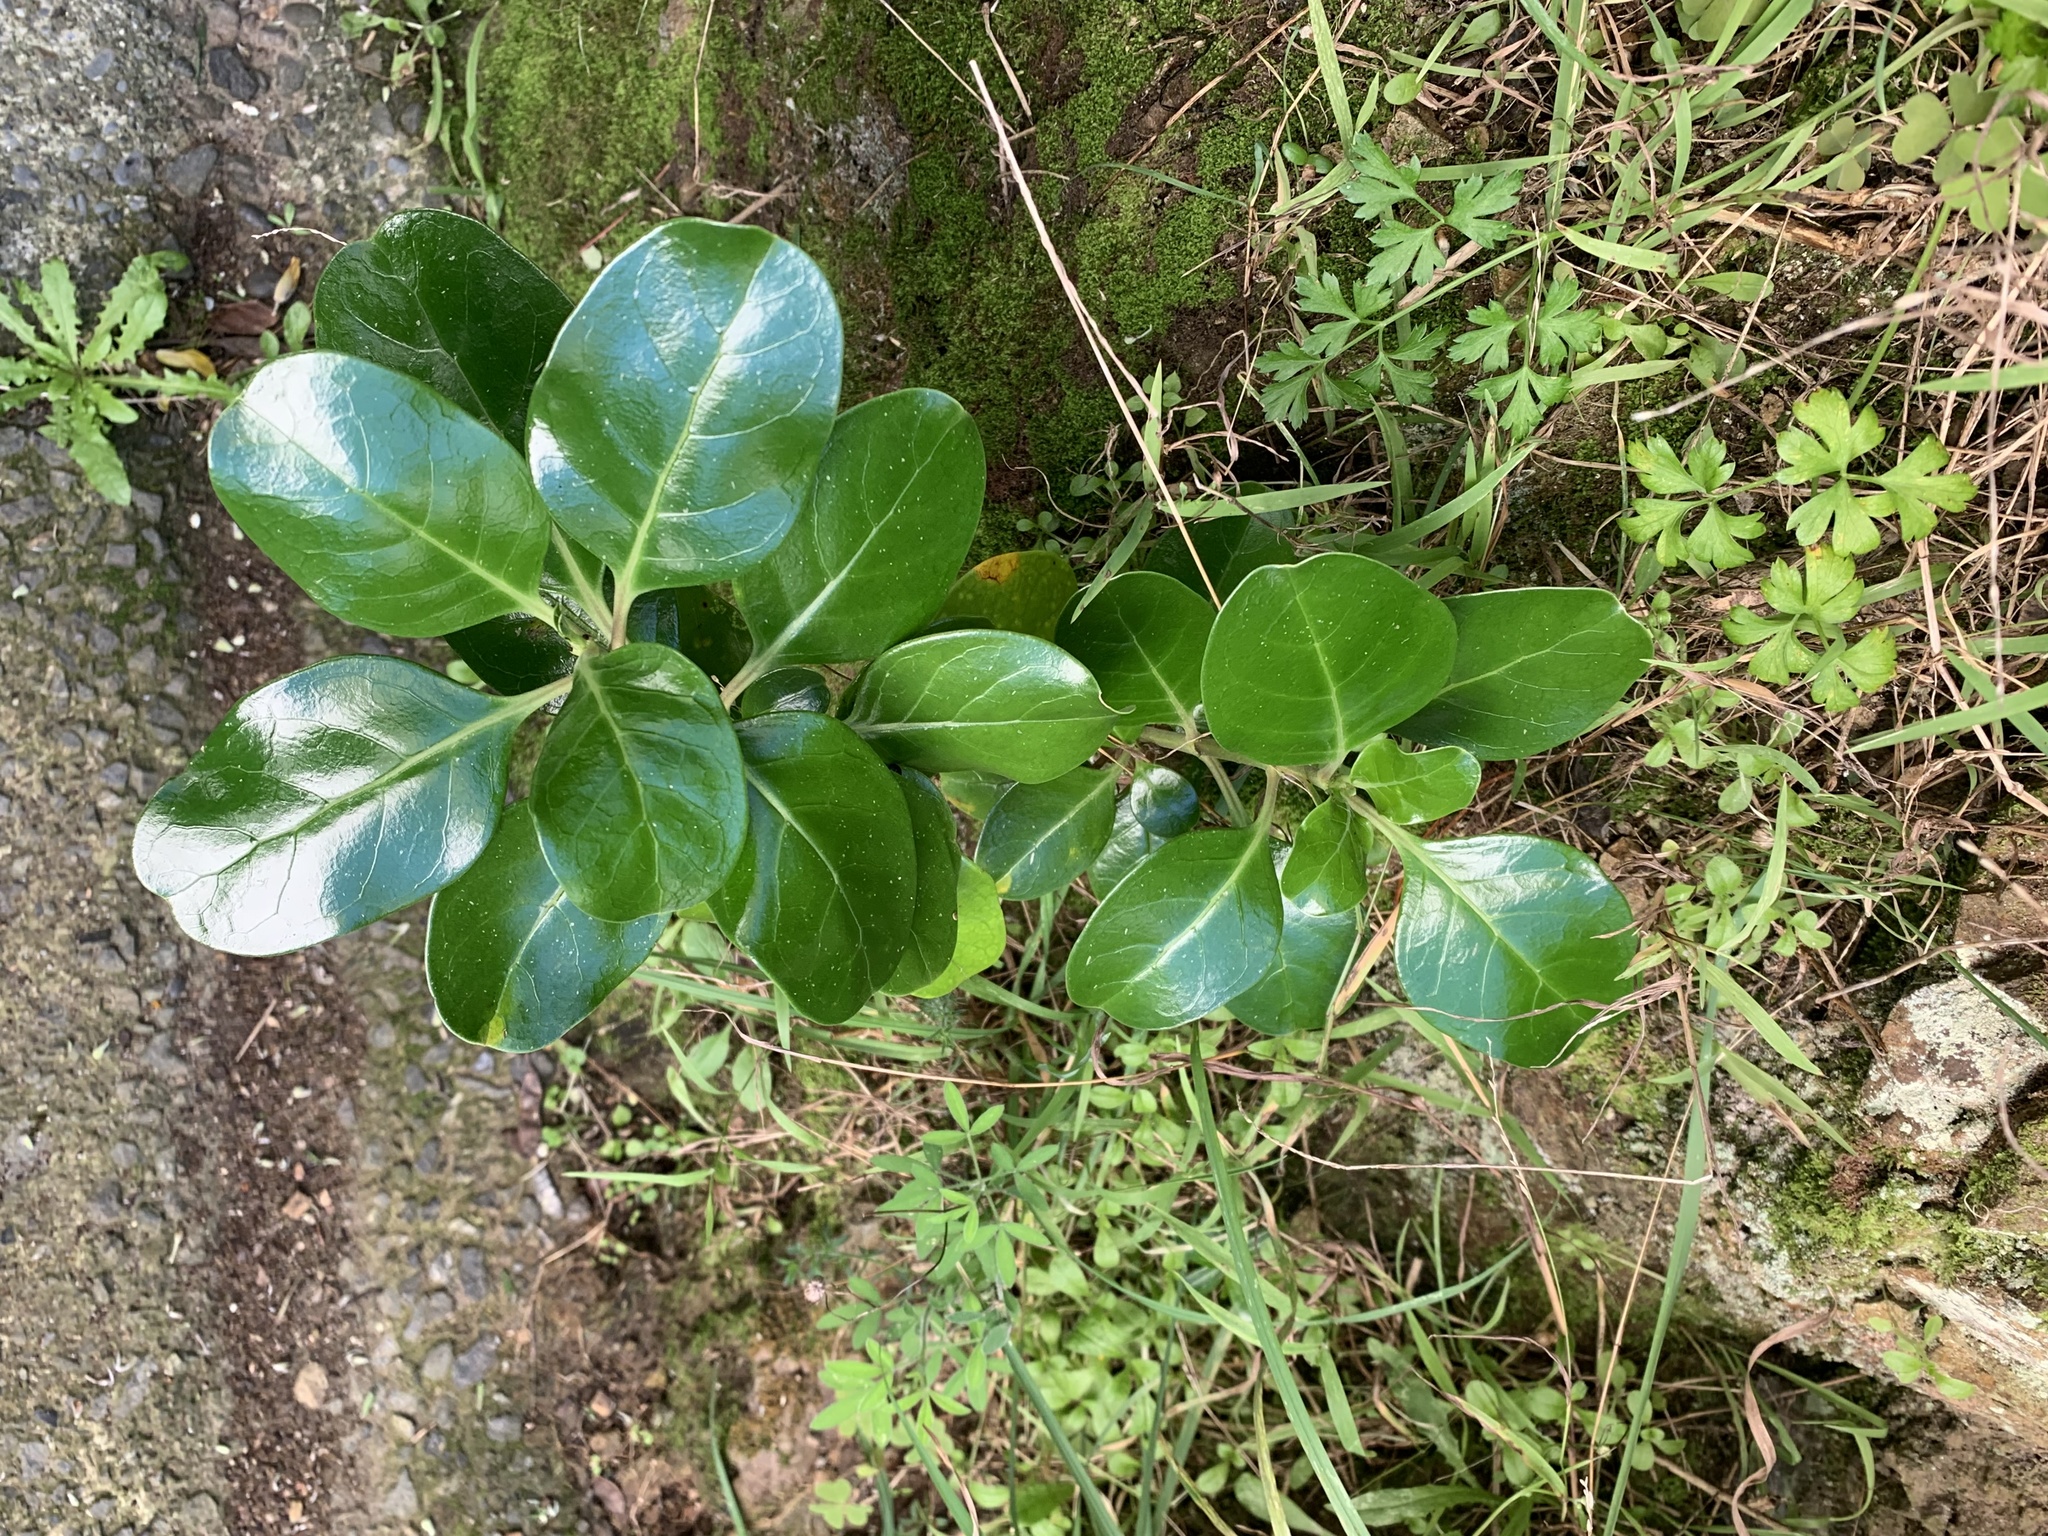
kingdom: Plantae
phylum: Tracheophyta
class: Magnoliopsida
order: Gentianales
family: Rubiaceae
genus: Coprosma
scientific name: Coprosma repens
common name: Tree bedstraw
